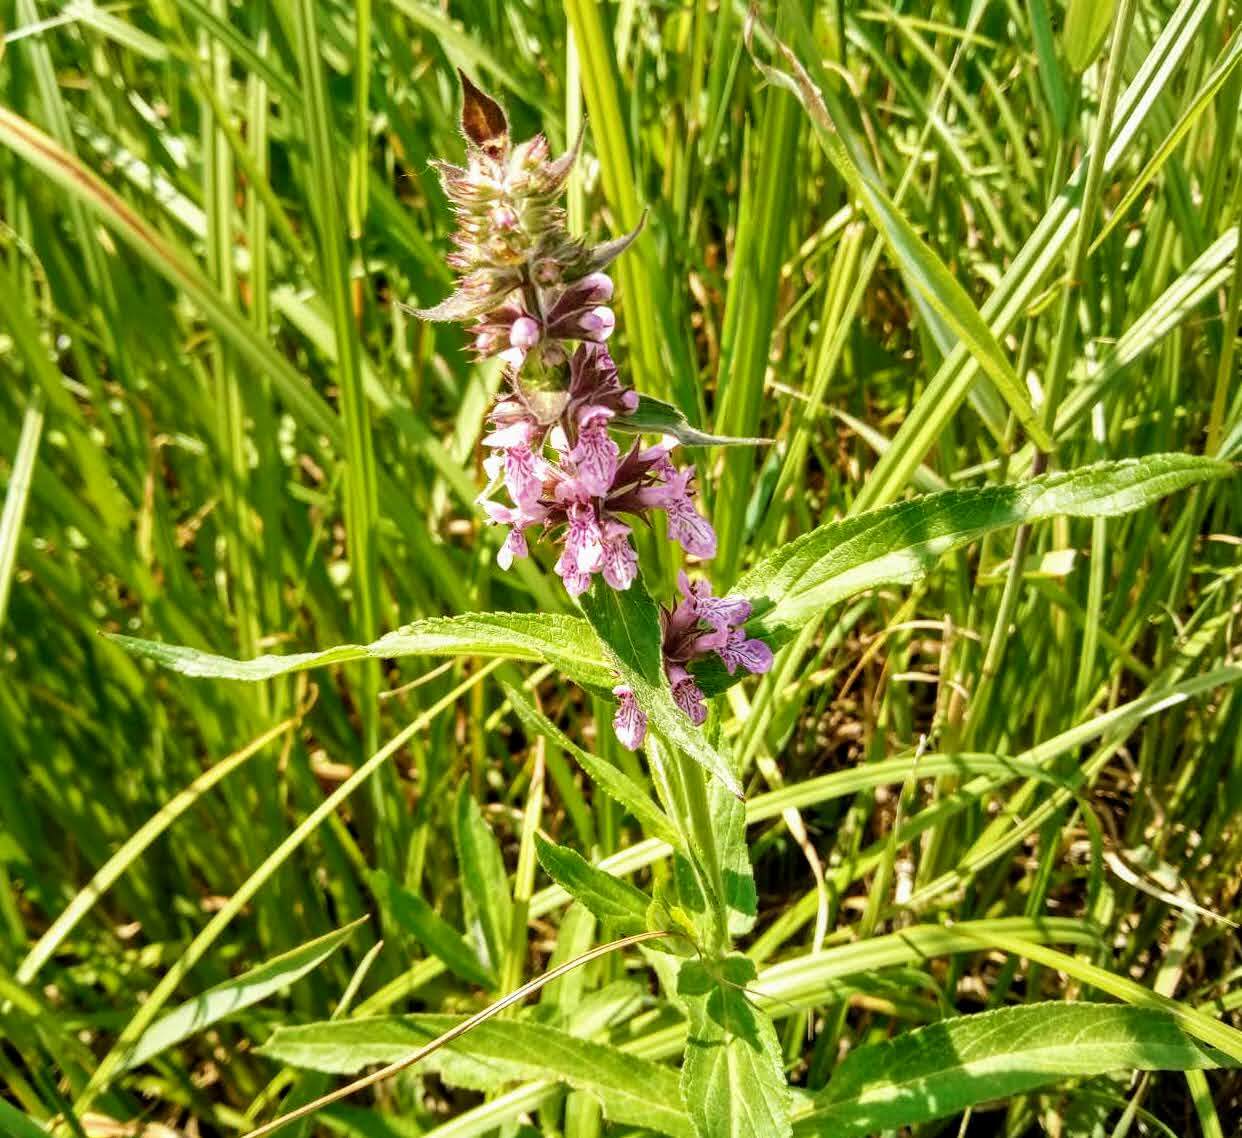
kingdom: Plantae
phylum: Tracheophyta
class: Magnoliopsida
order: Lamiales
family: Lamiaceae
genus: Stachys
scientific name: Stachys palustris
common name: Marsh woundwort
